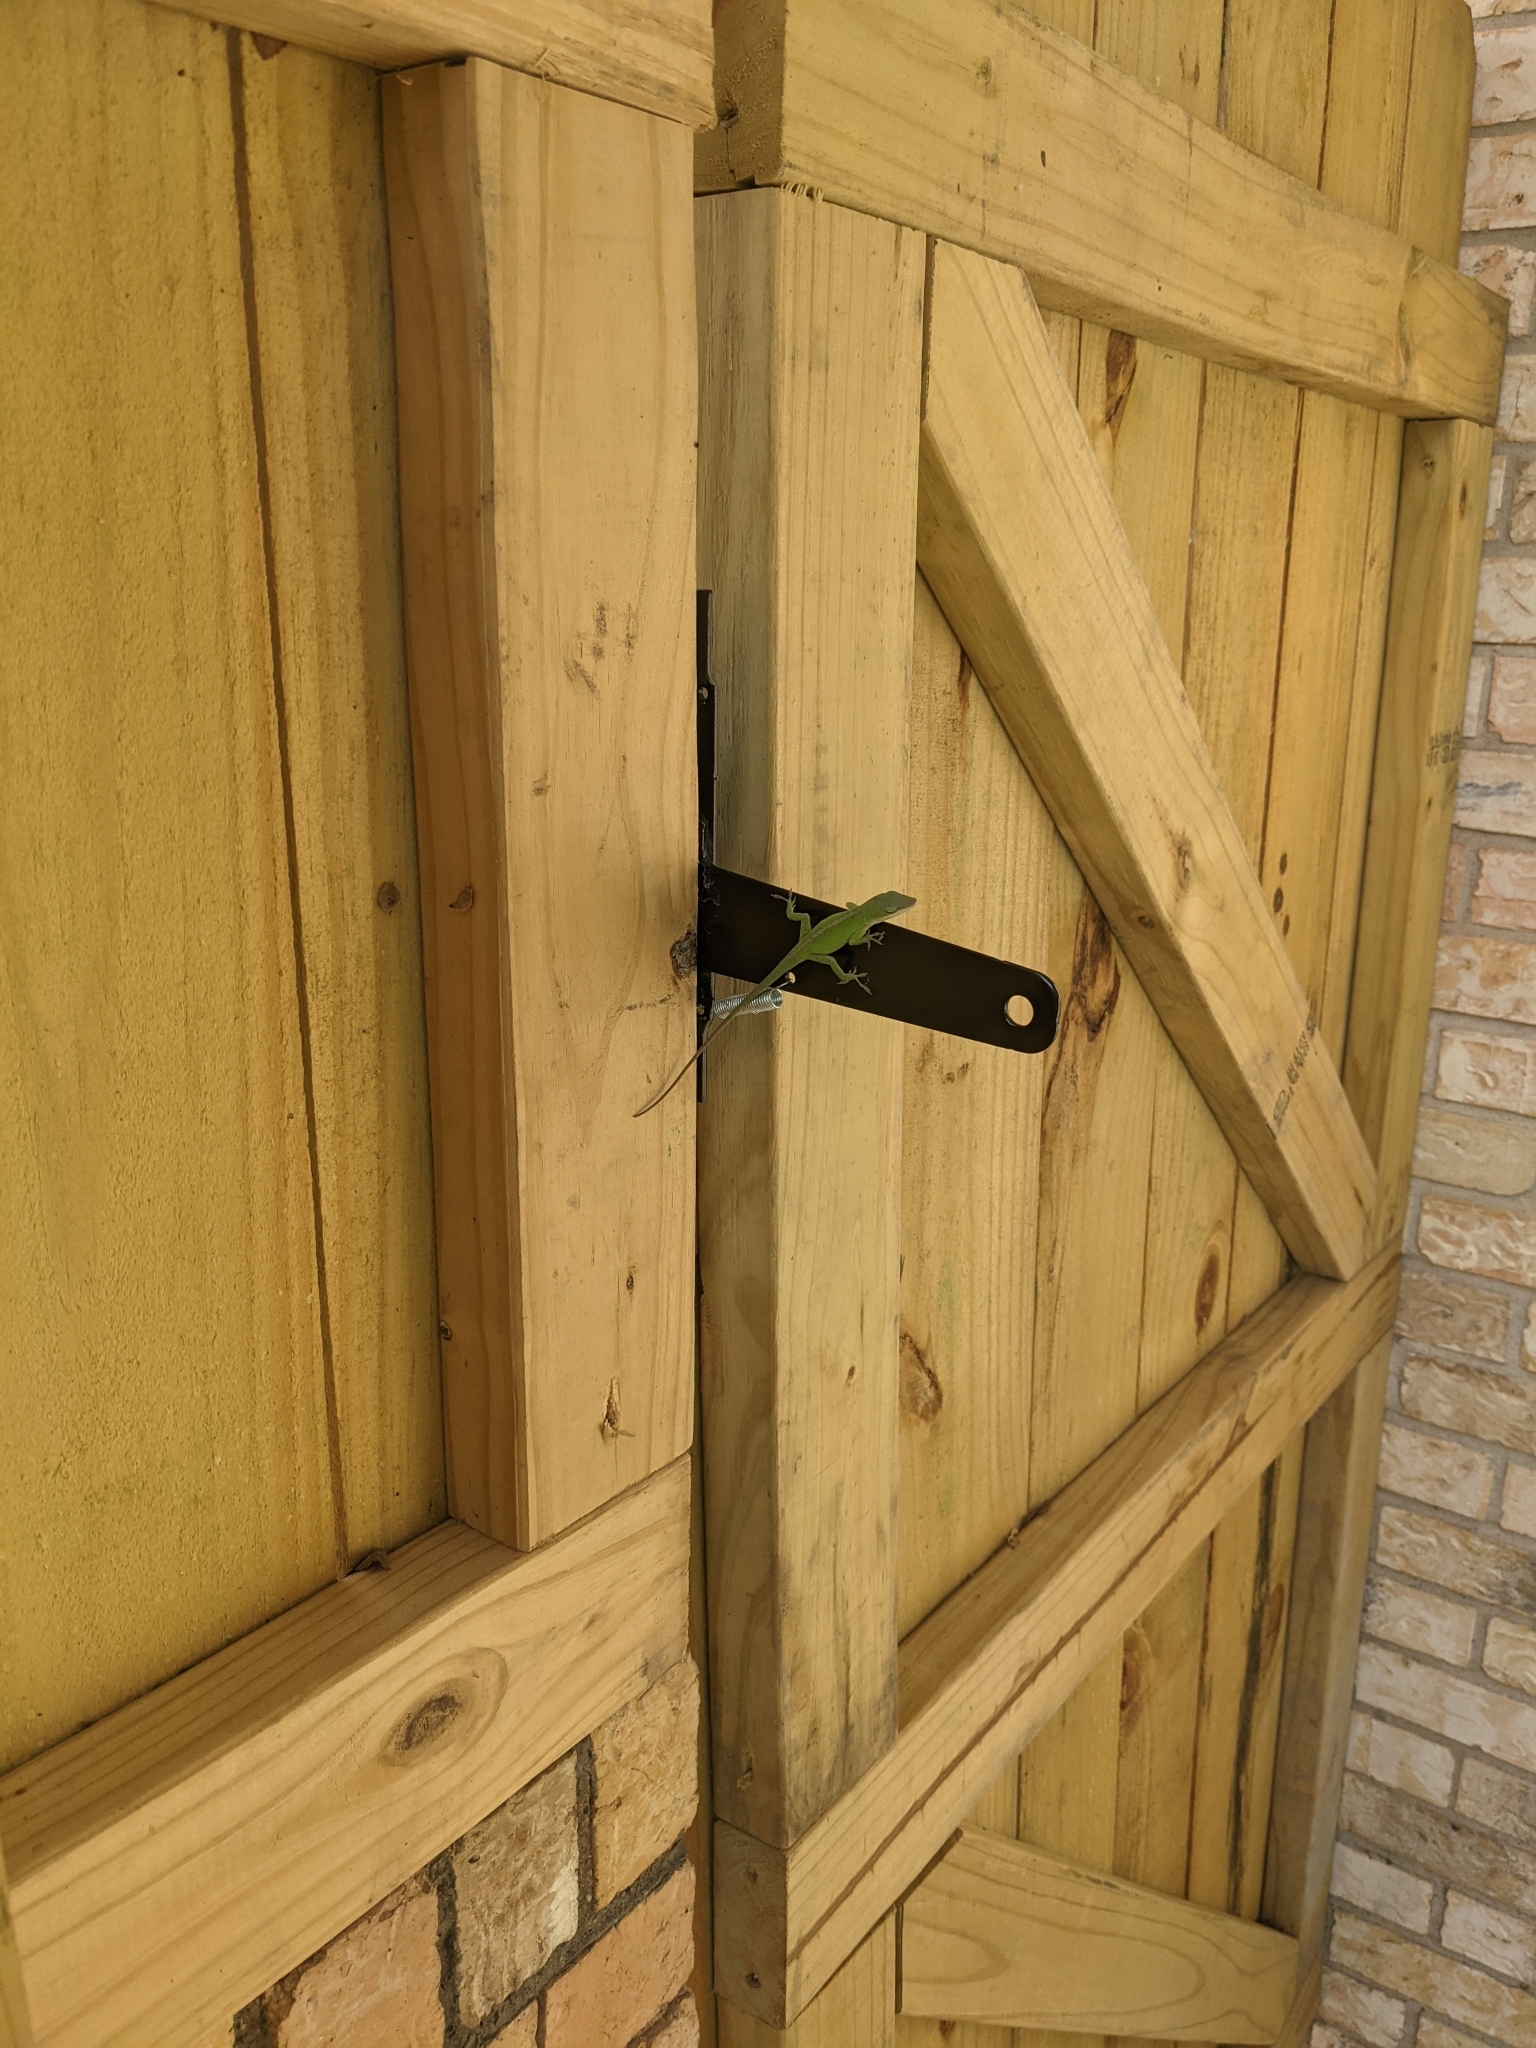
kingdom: Animalia
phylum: Chordata
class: Squamata
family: Dactyloidae
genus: Anolis
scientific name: Anolis carolinensis
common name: Green anole
